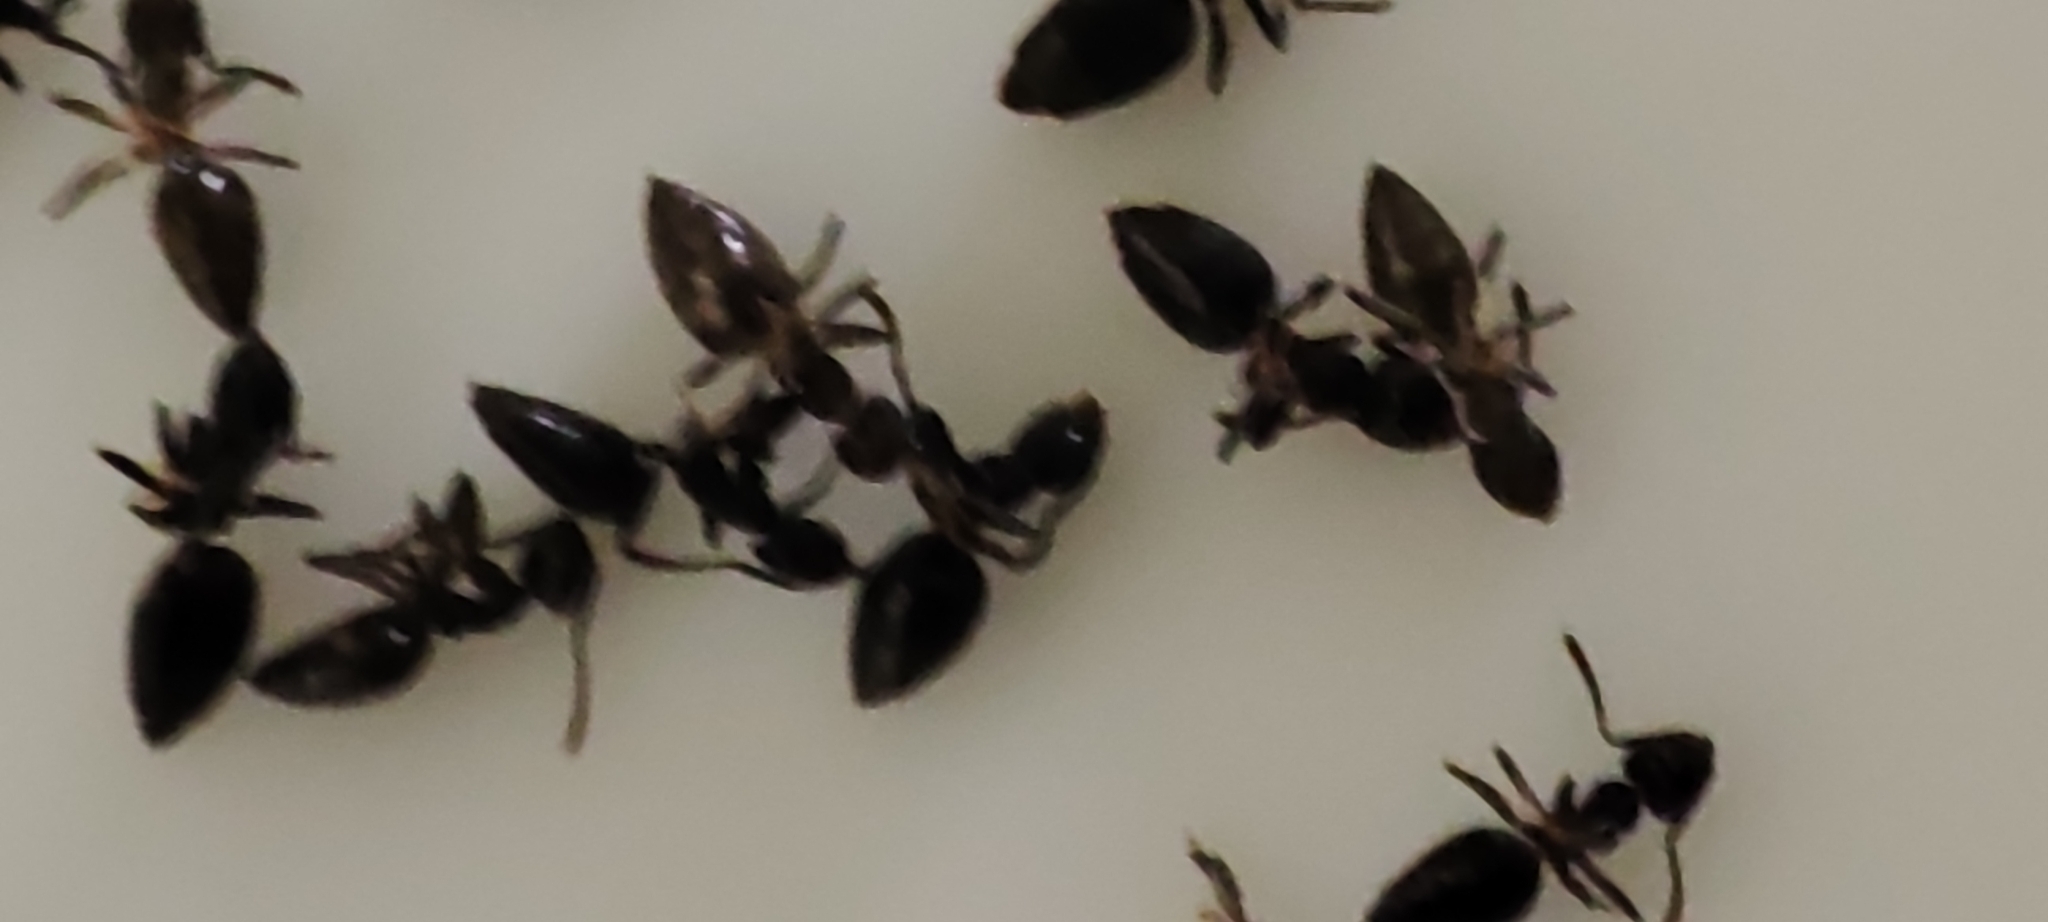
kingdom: Animalia
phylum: Arthropoda
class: Insecta
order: Hymenoptera
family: Formicidae
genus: Technomyrmex
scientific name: Technomyrmex
